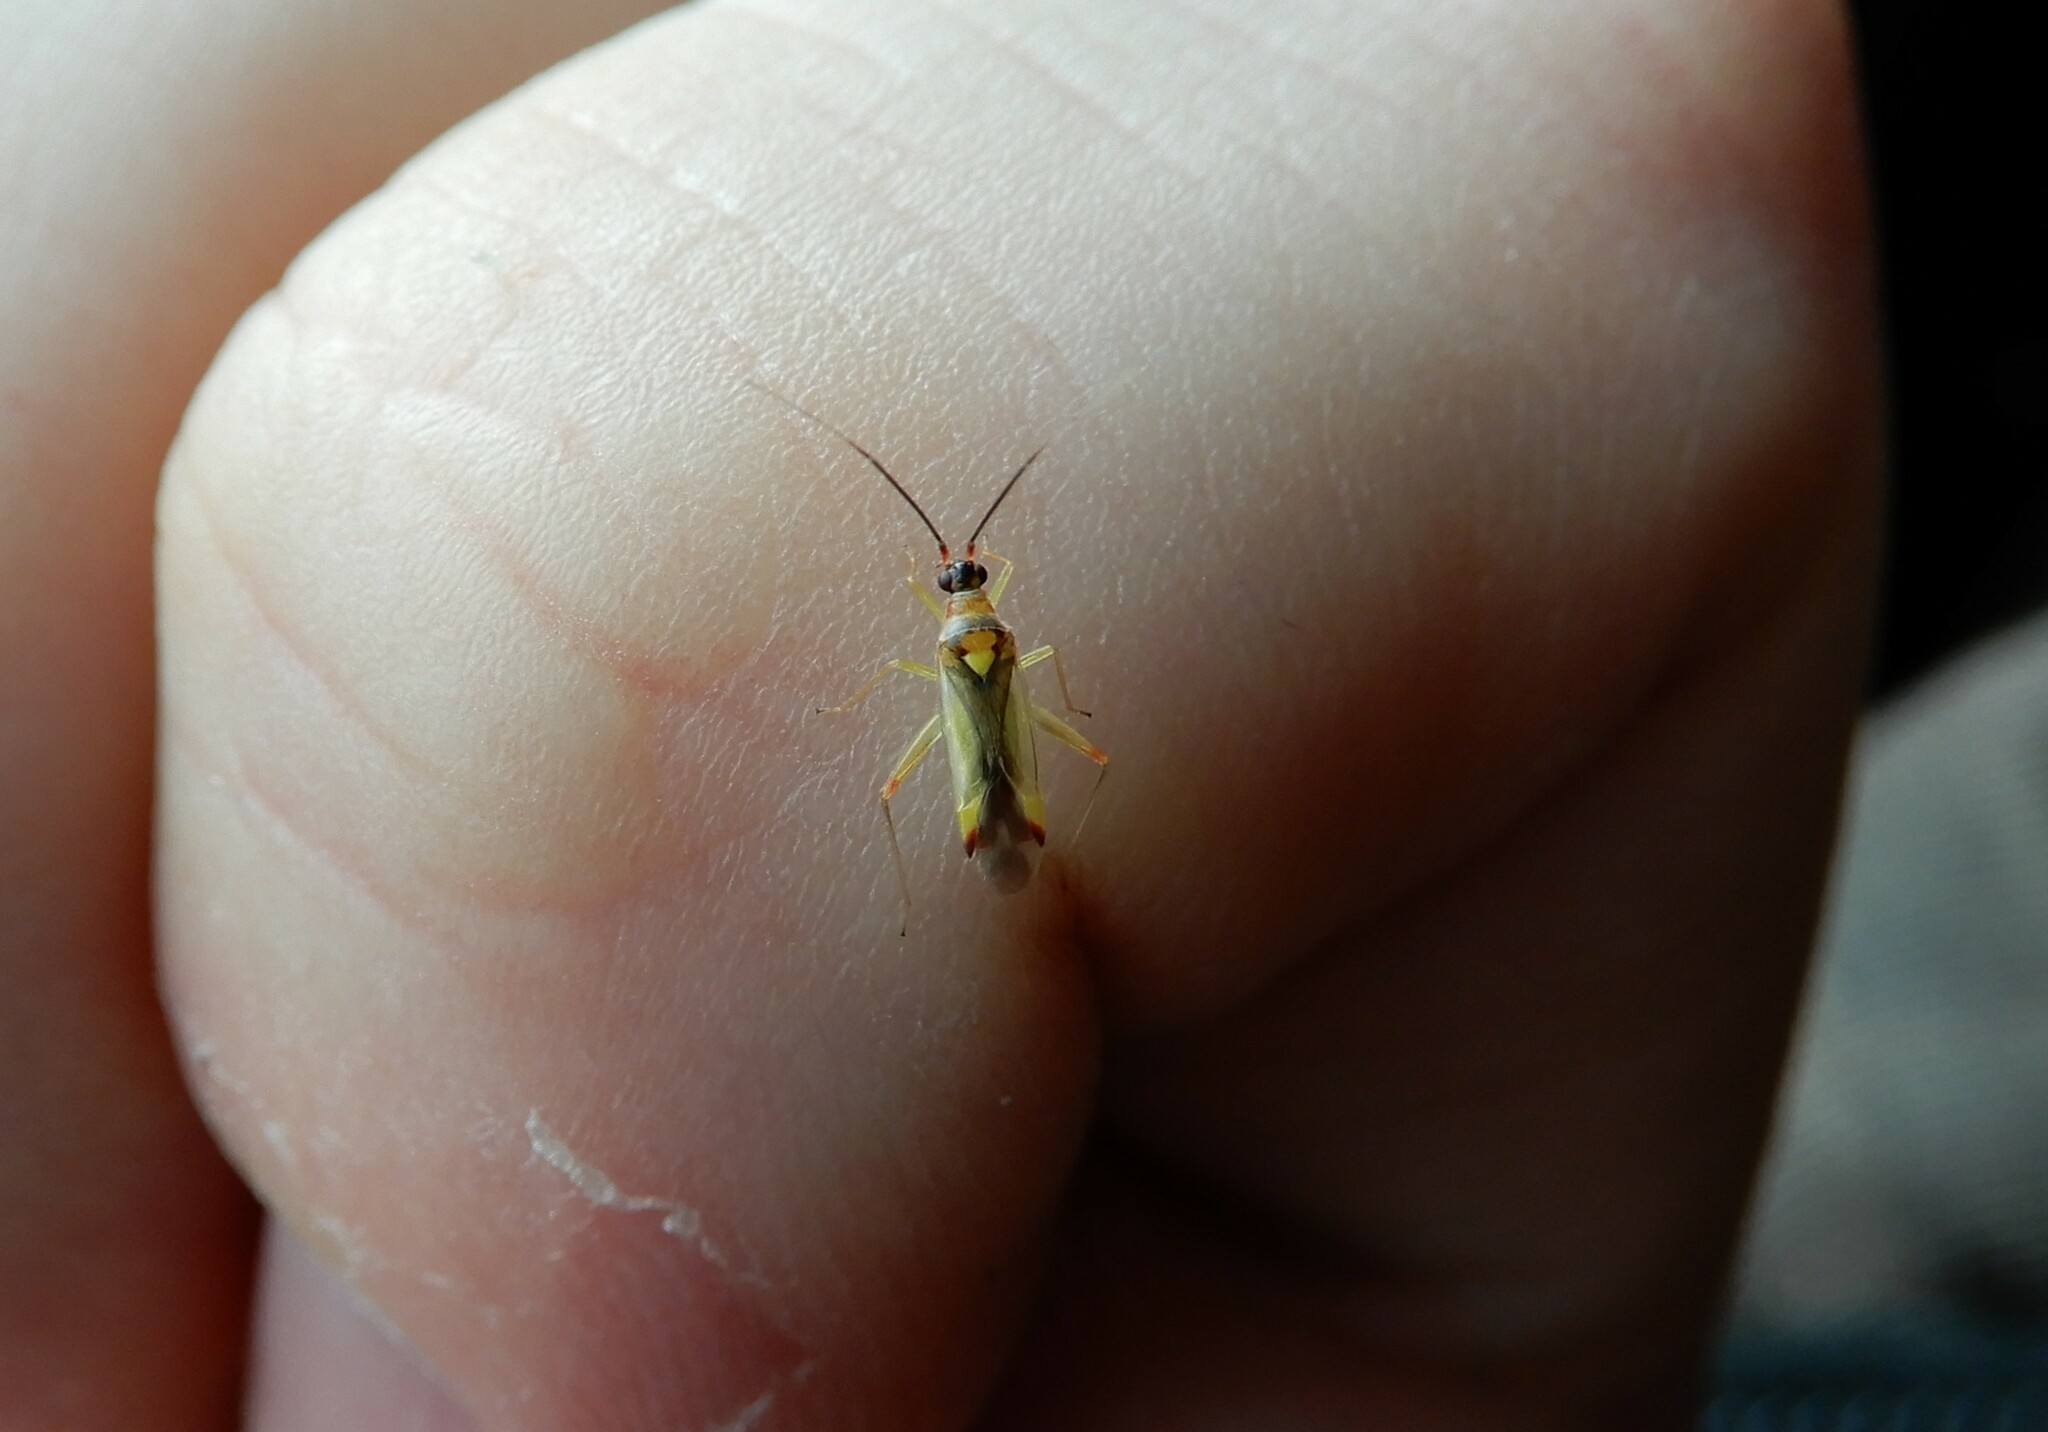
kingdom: Animalia
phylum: Arthropoda
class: Insecta
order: Hemiptera
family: Miridae
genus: Campyloneura
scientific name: Campyloneura virgula
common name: Predatory bug
